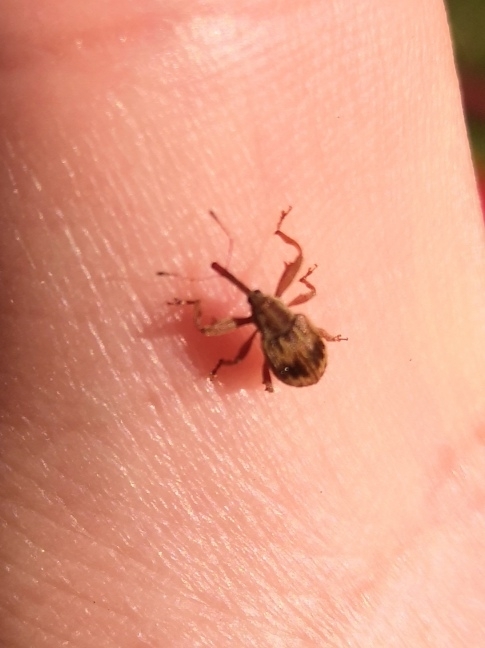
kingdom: Animalia
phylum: Arthropoda
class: Insecta
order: Coleoptera
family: Curculionidae
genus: Anthonomus
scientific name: Anthonomus rectirostris
